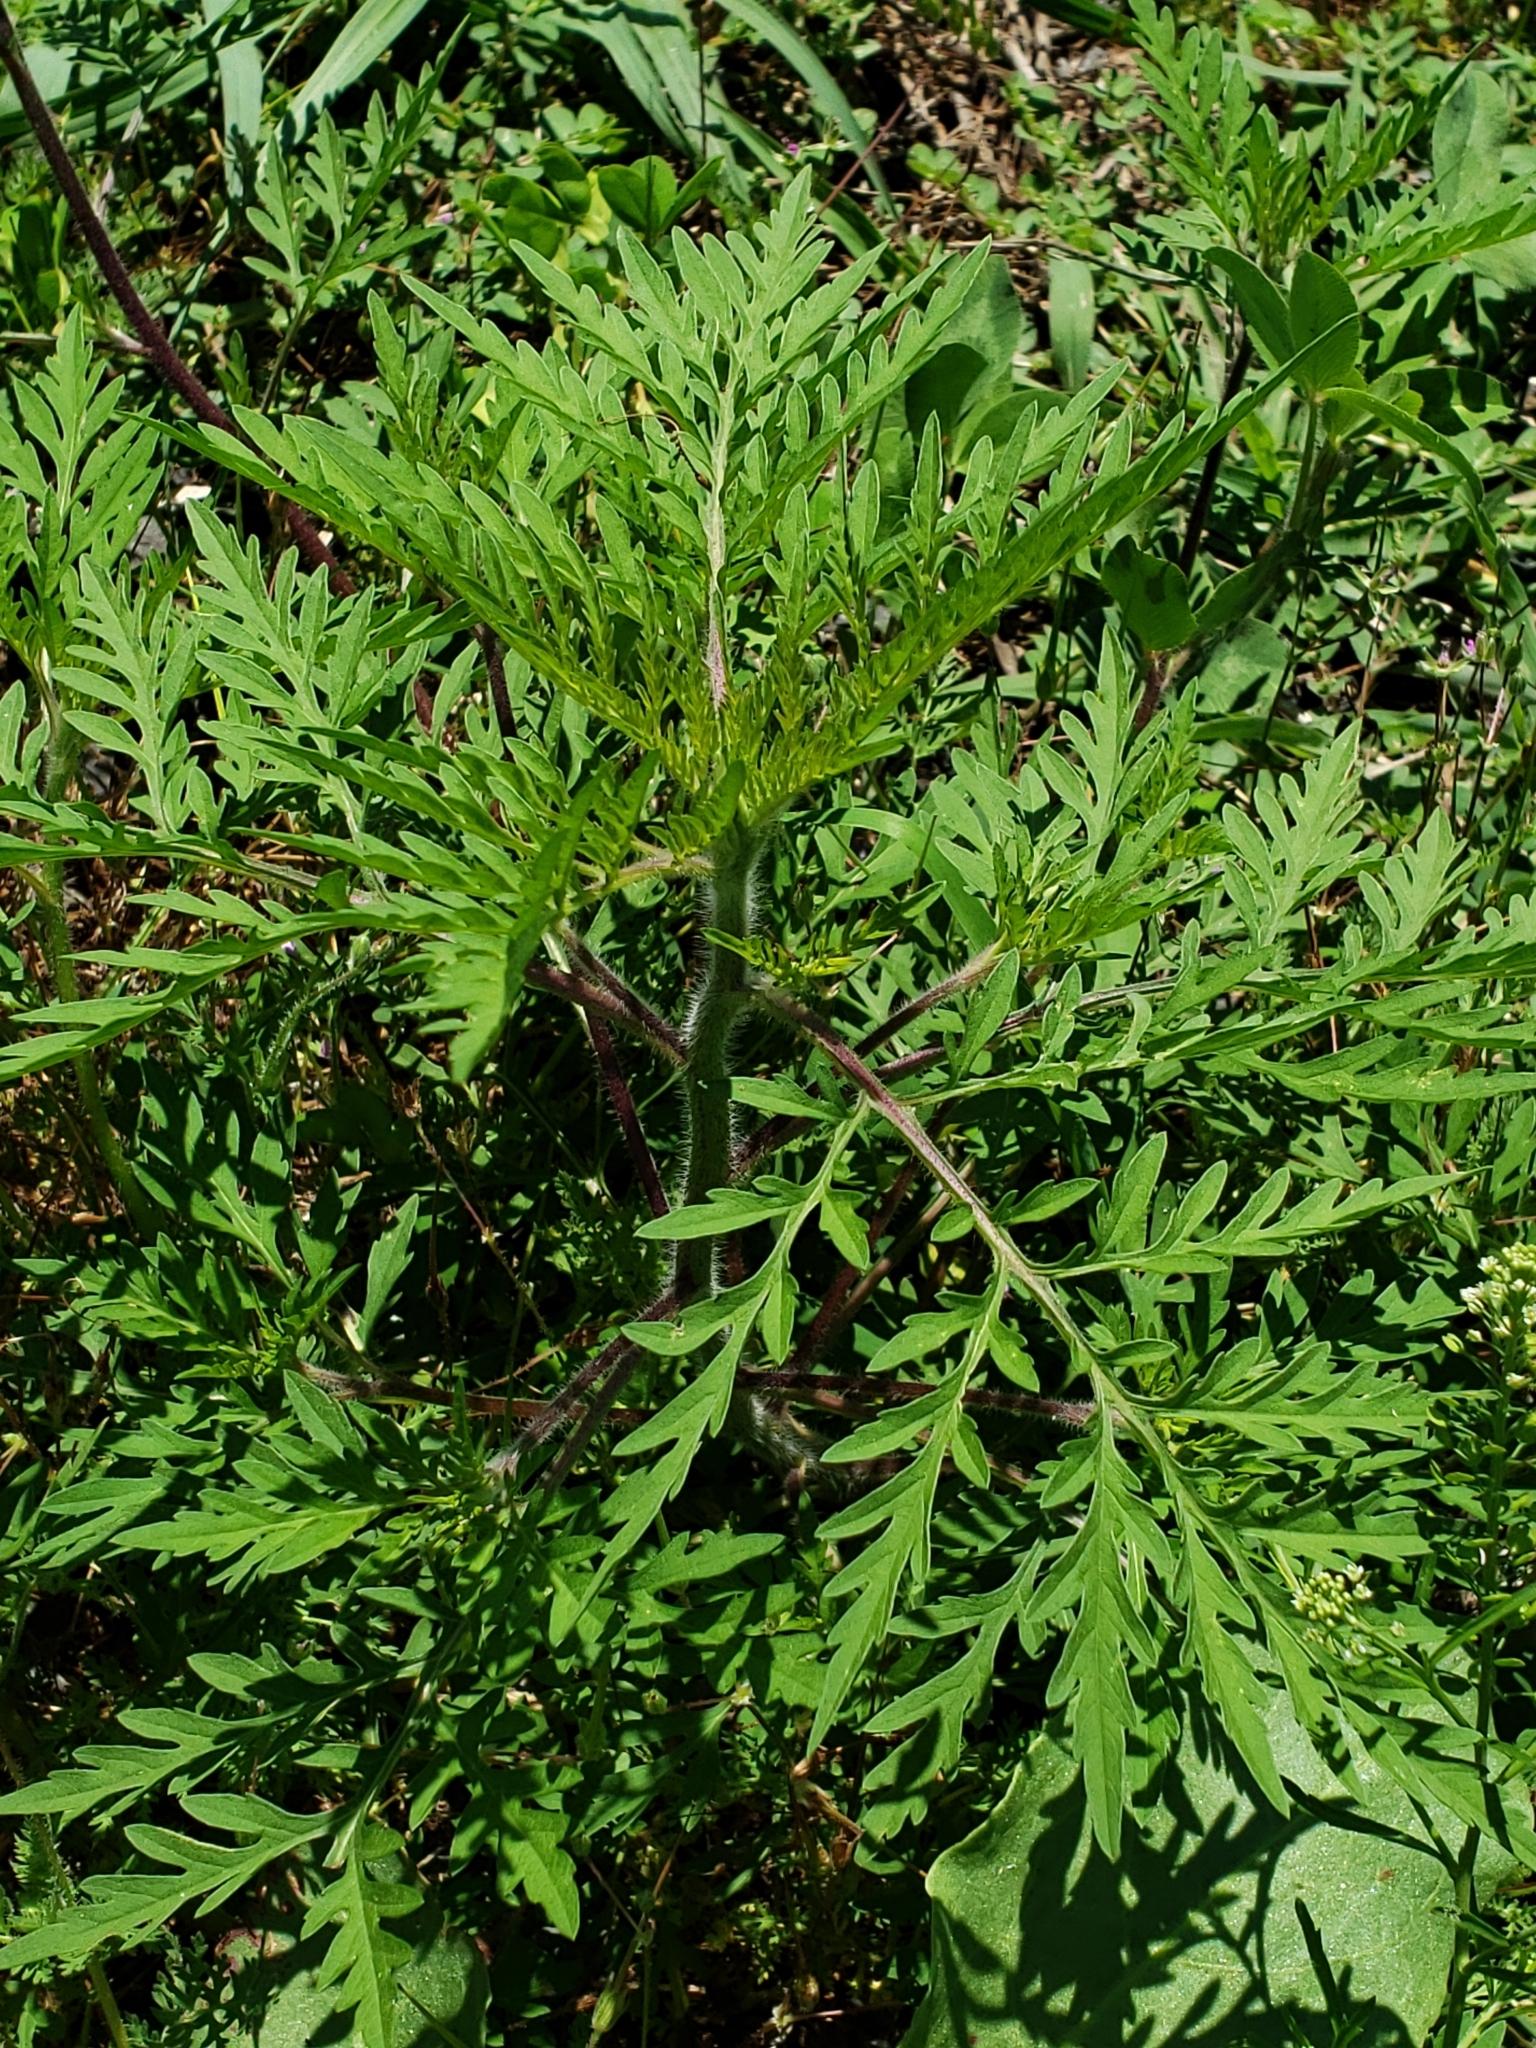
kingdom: Plantae
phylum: Tracheophyta
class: Magnoliopsida
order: Asterales
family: Asteraceae
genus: Ambrosia
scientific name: Ambrosia artemisiifolia
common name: Annual ragweed
